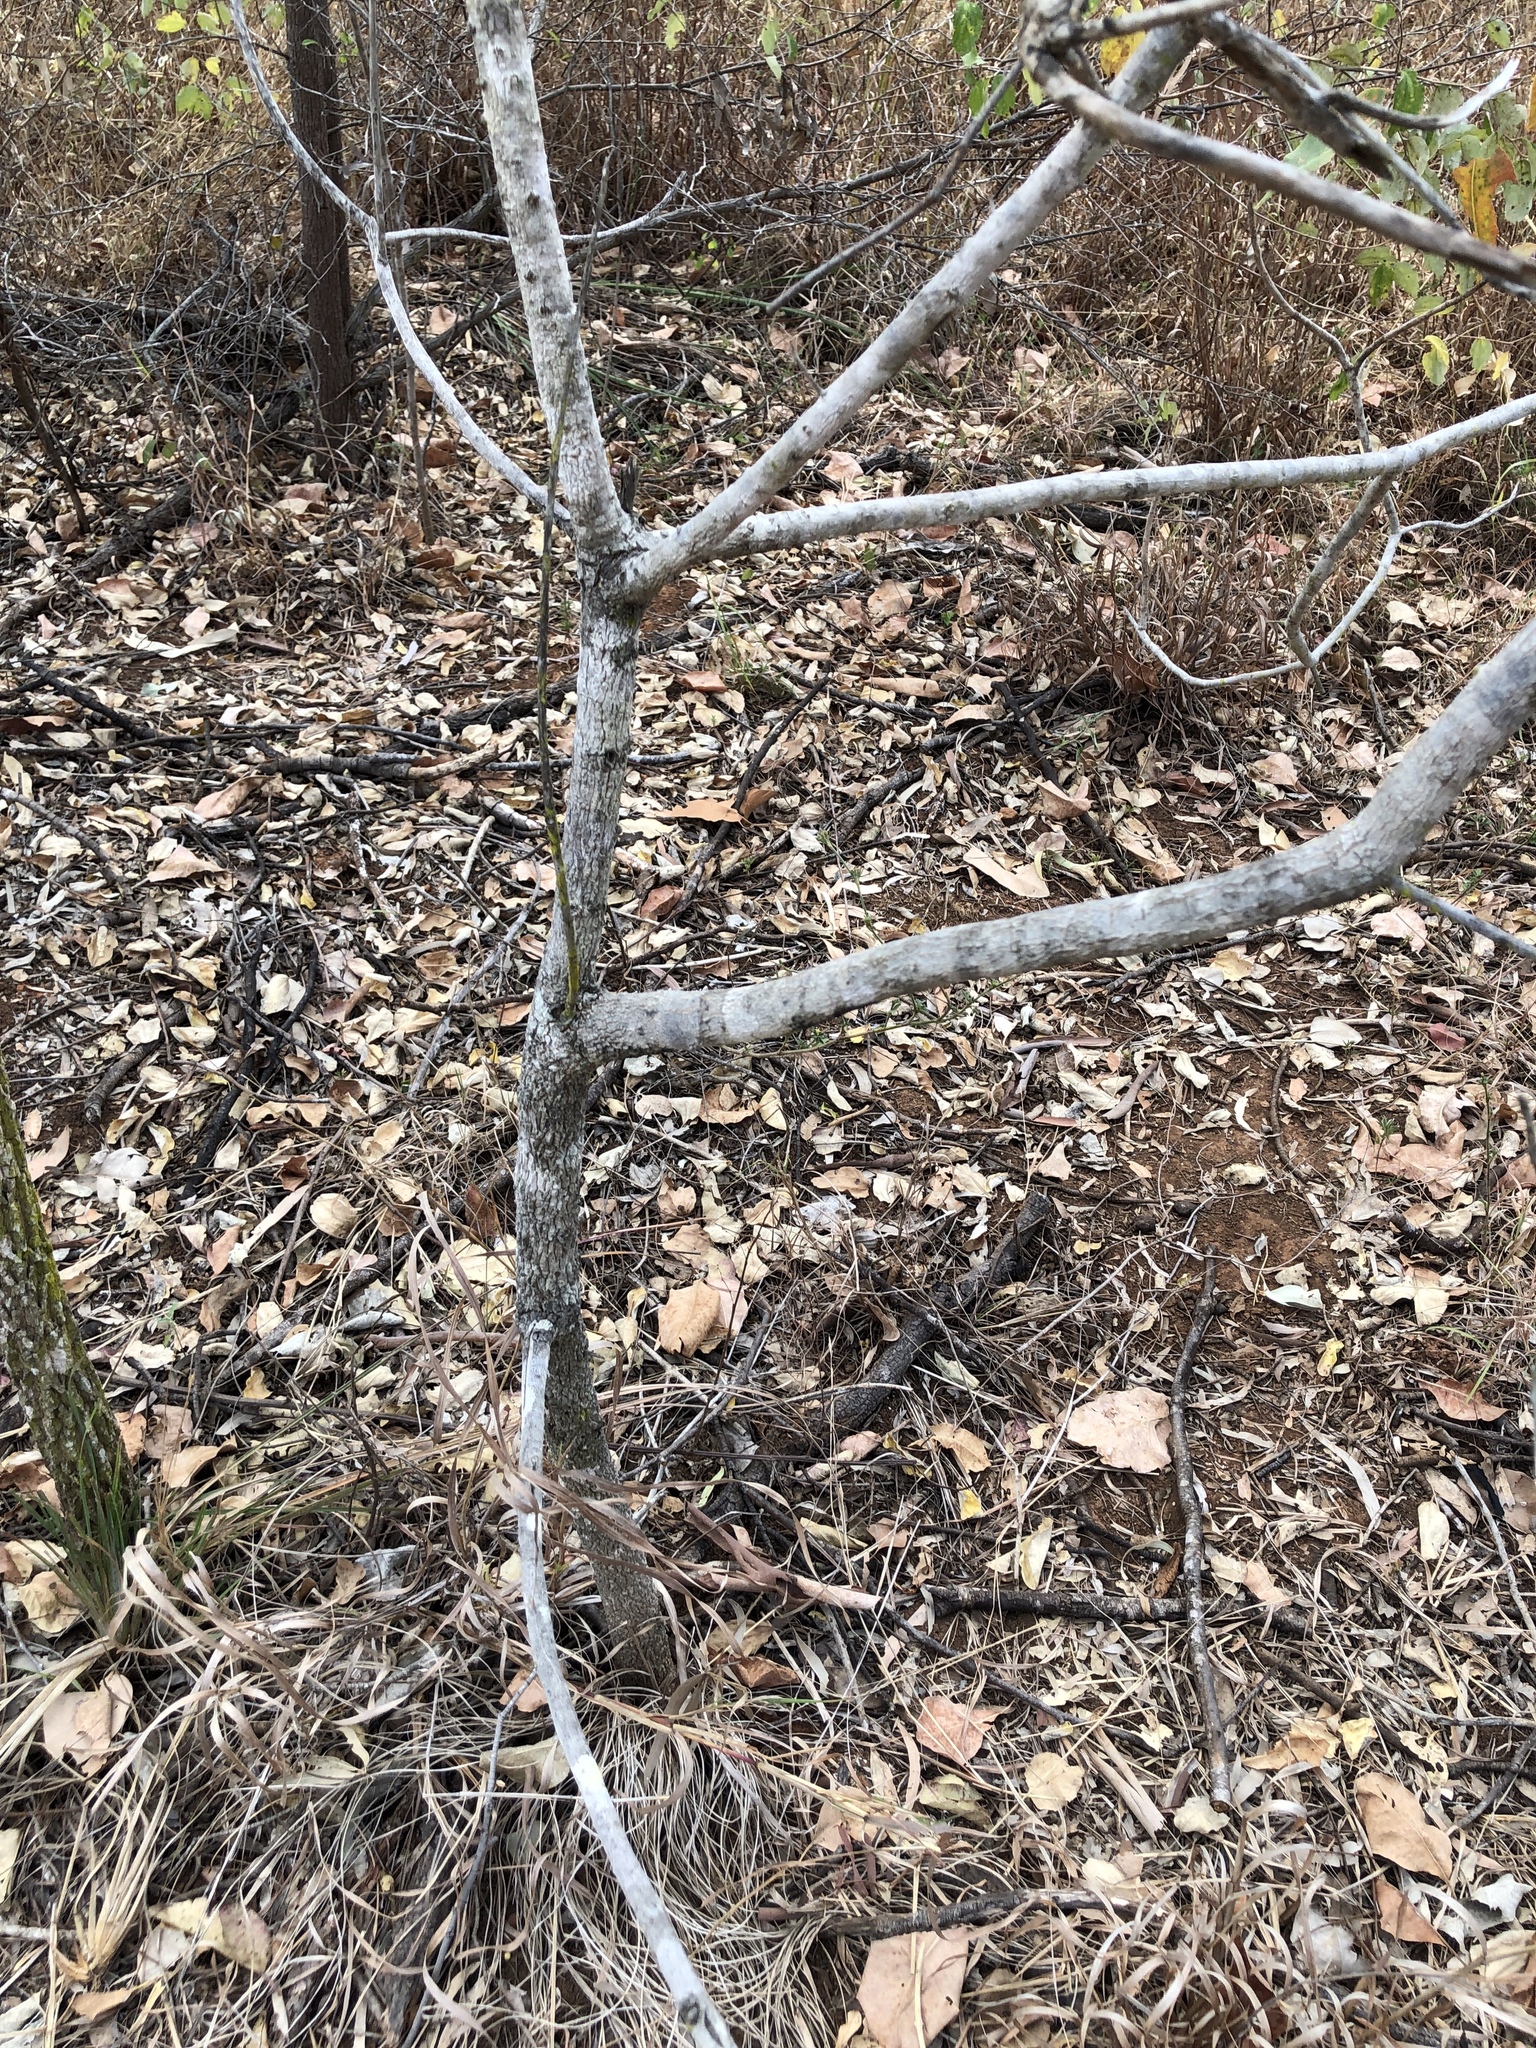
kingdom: Plantae
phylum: Tracheophyta
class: Magnoliopsida
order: Ericales
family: Lecythidaceae
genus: Planchonia
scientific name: Planchonia careya
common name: Cockatoo-apple
